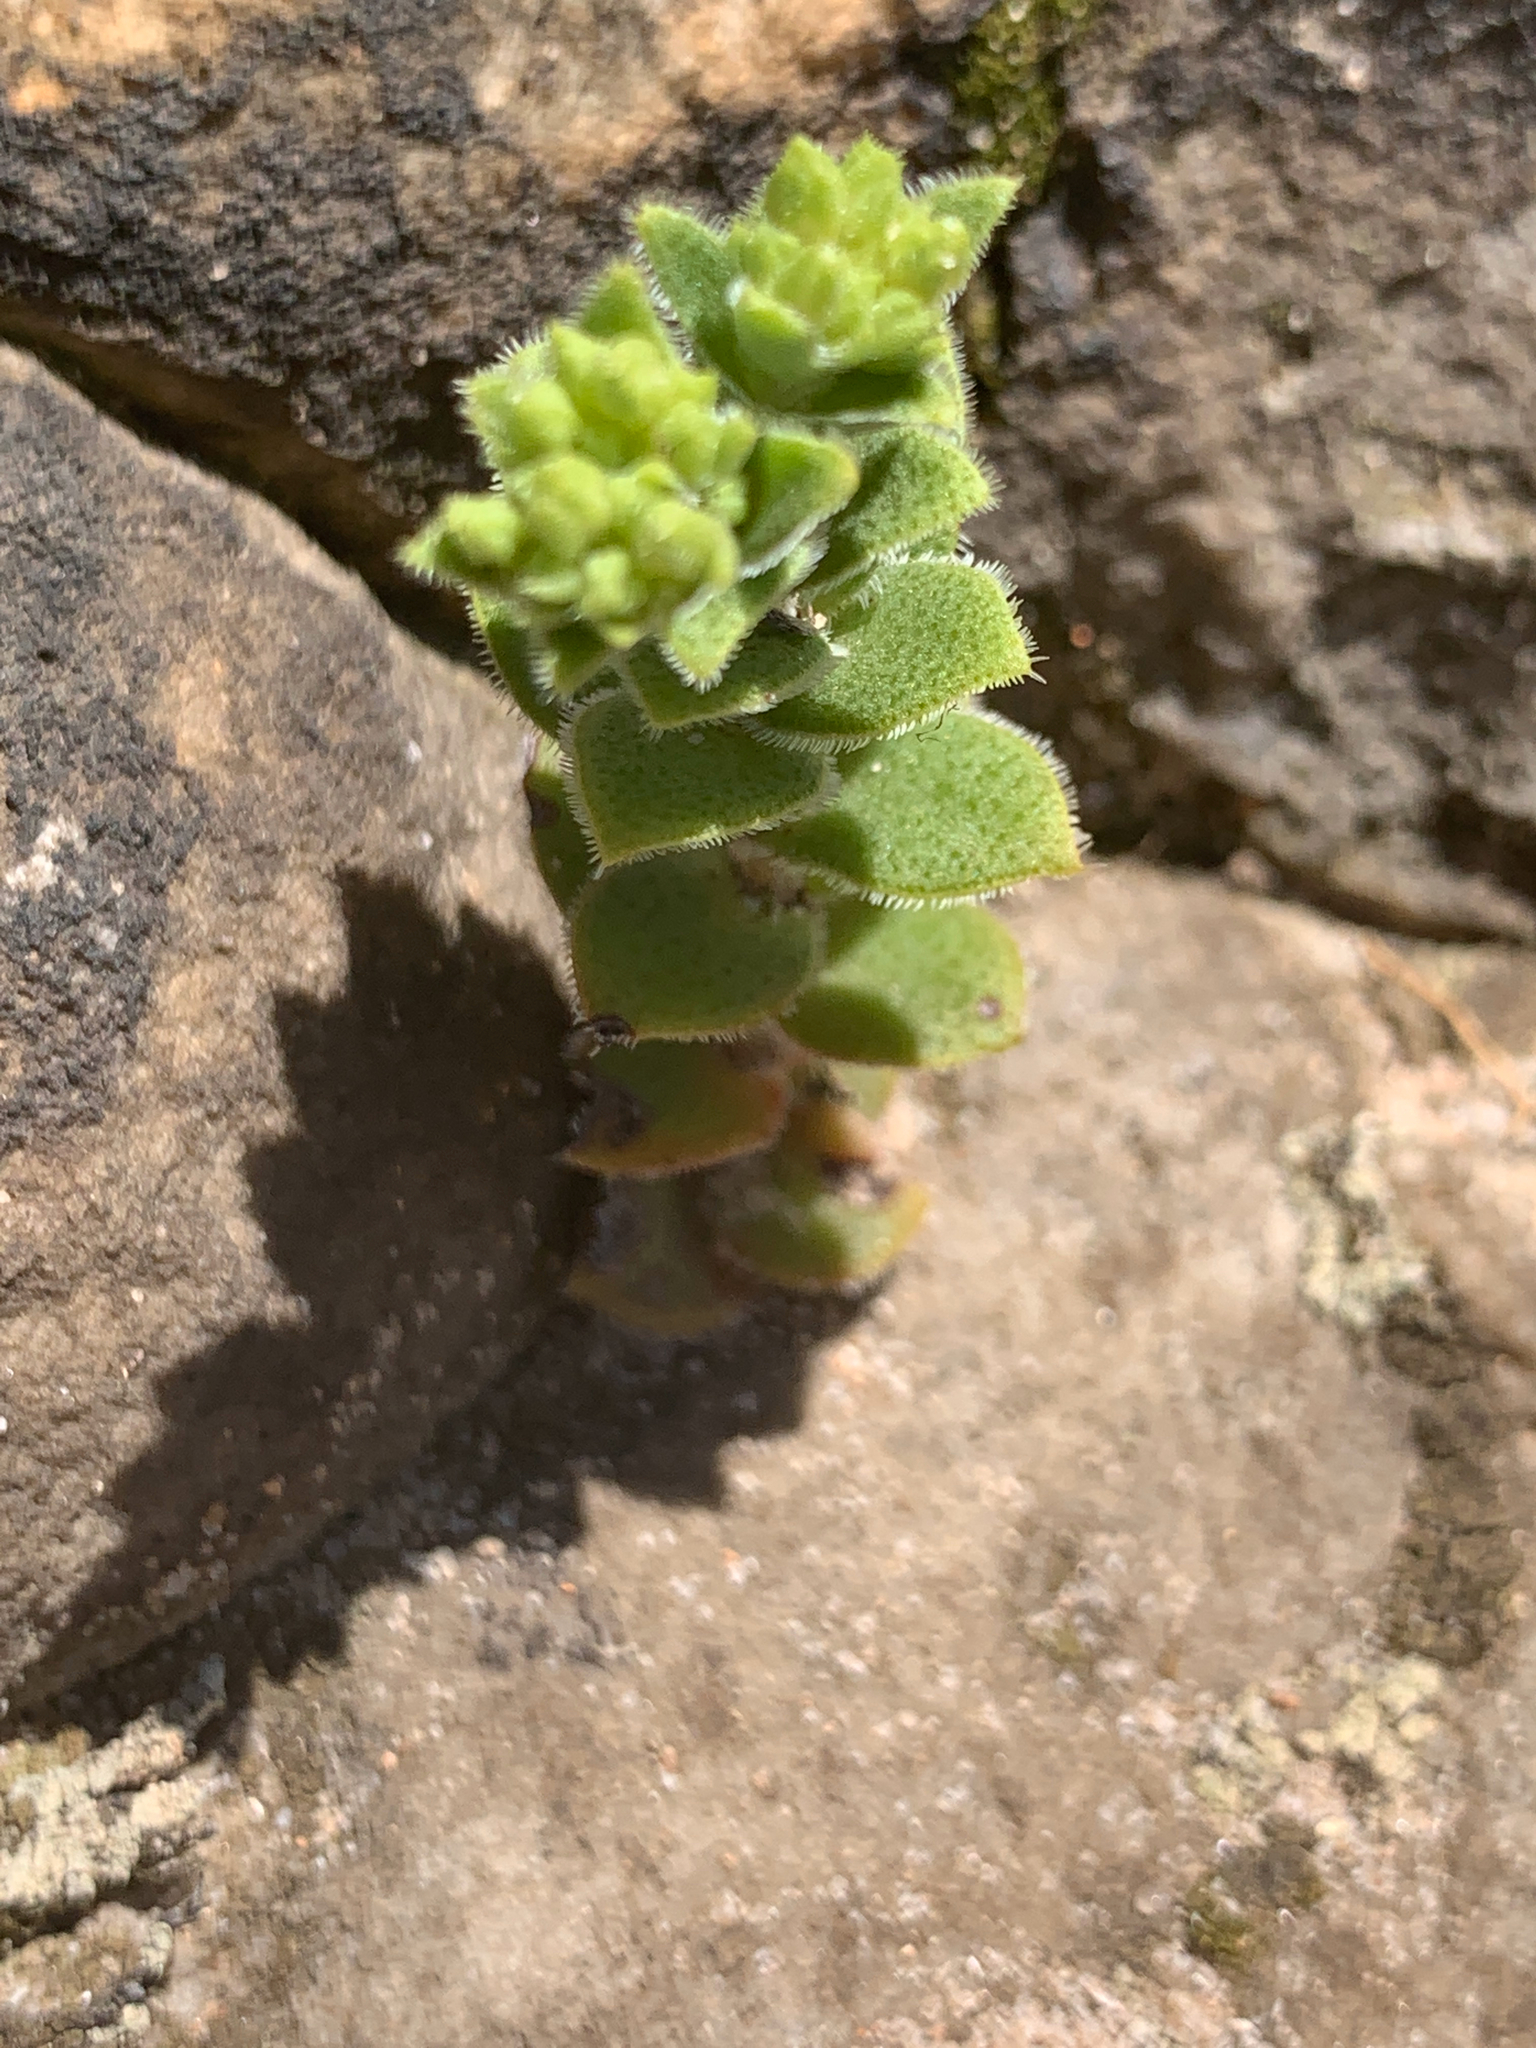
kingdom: Plantae
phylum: Tracheophyta
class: Magnoliopsida
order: Saxifragales
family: Crassulaceae
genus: Crassula
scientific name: Crassula setulosa
